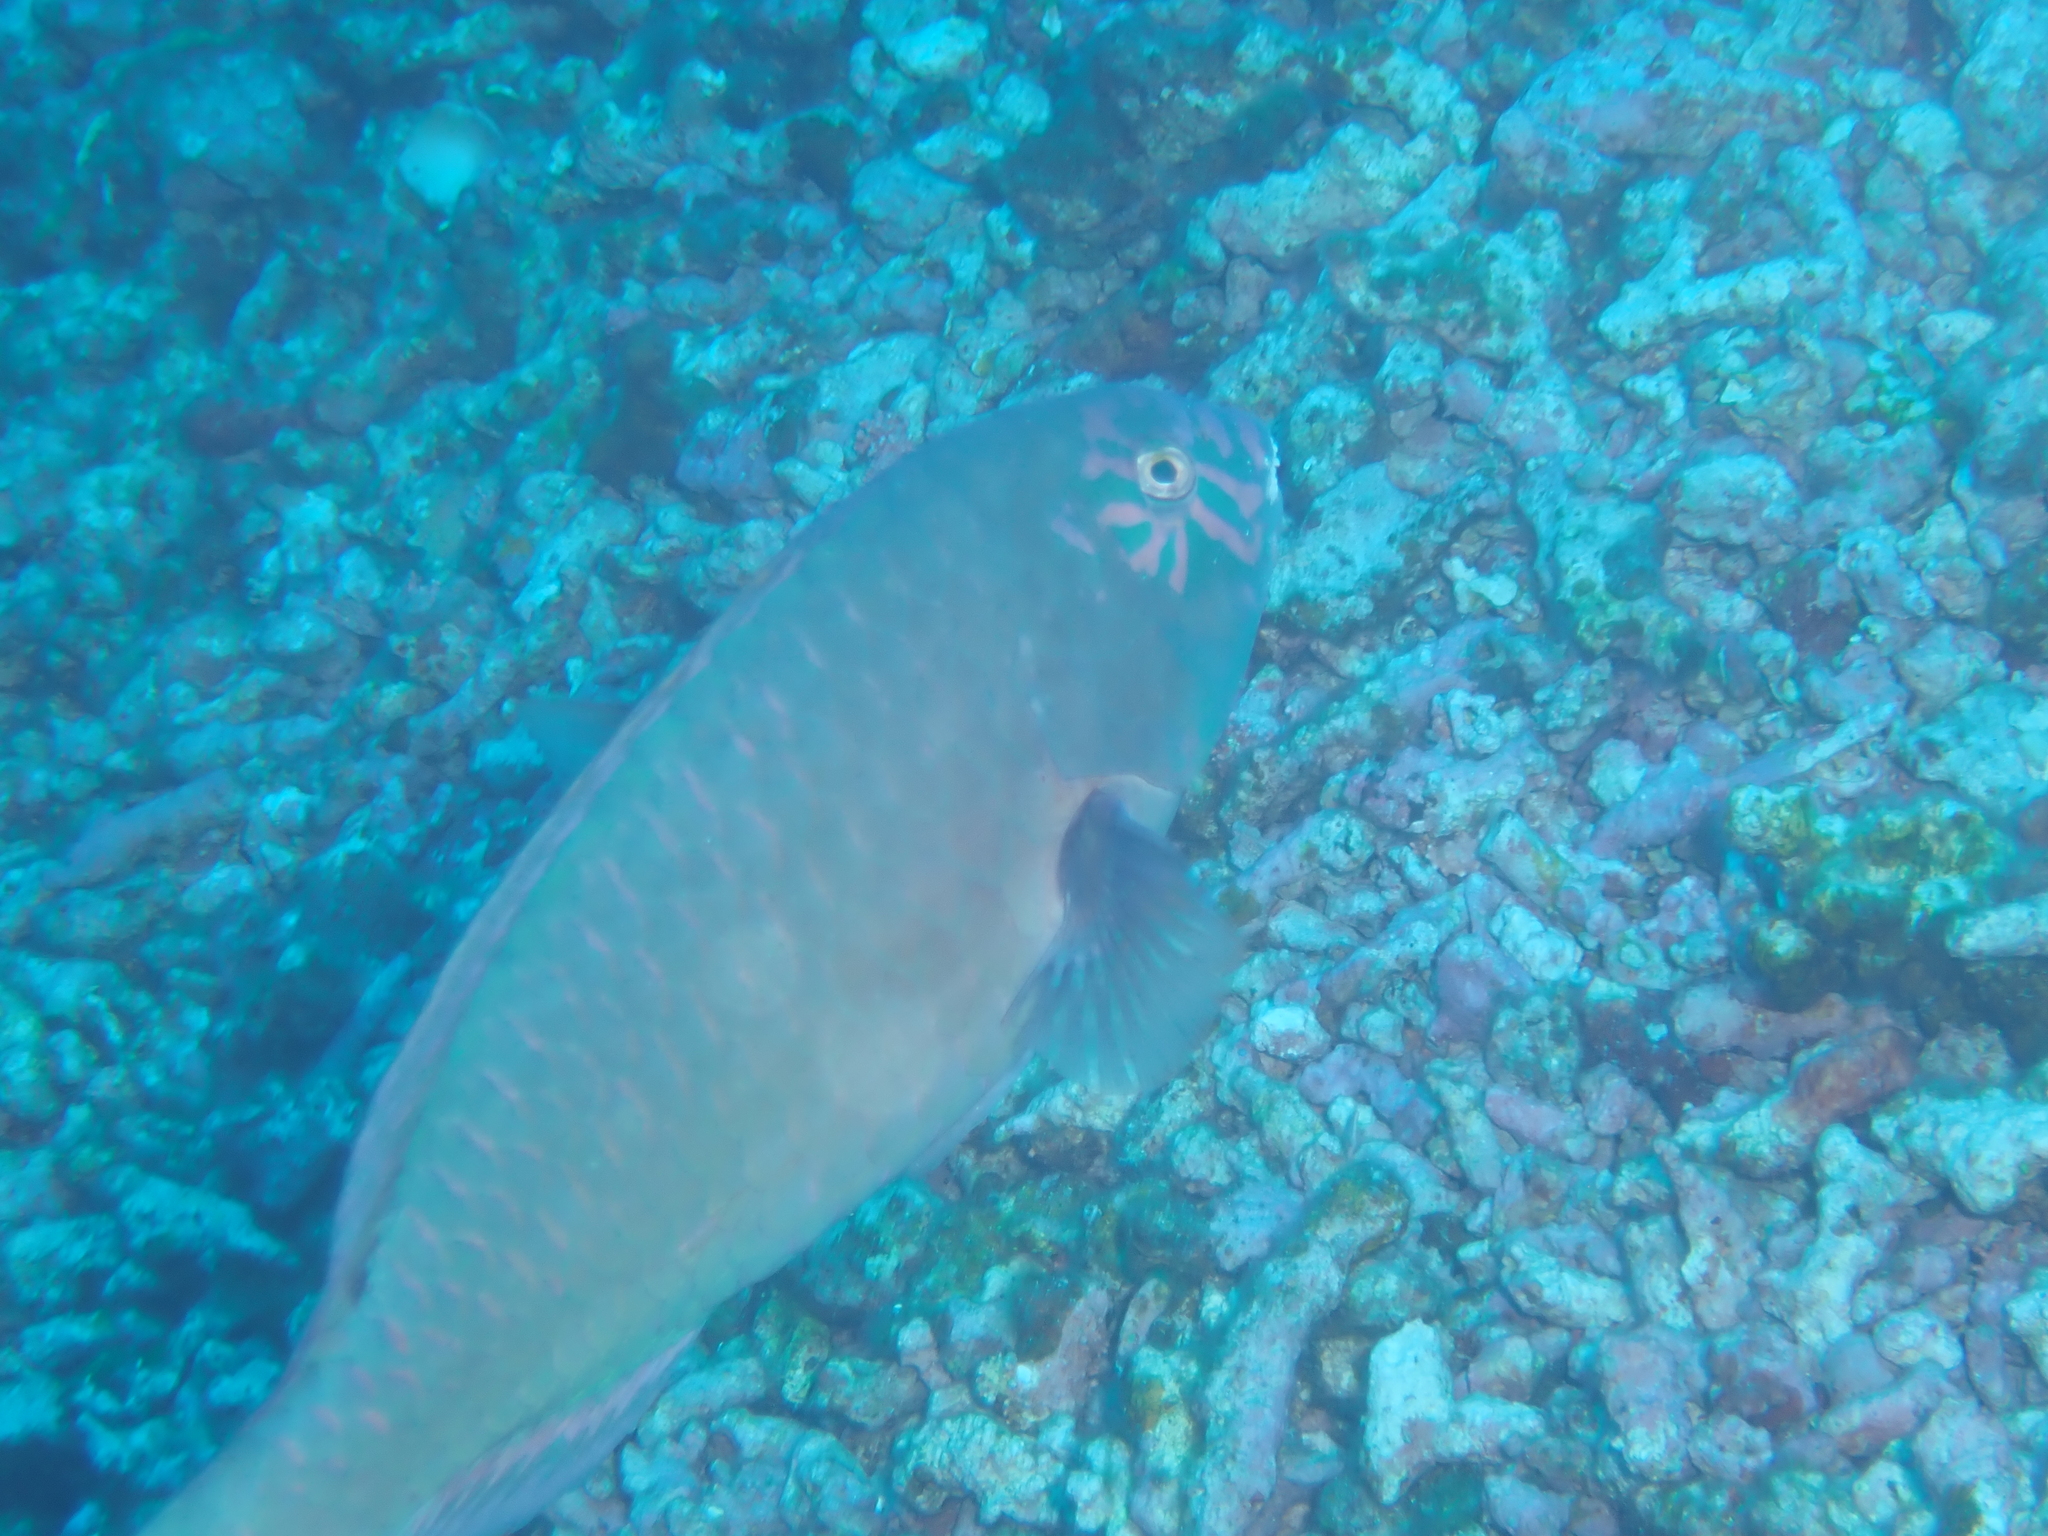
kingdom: Animalia
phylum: Chordata
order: Perciformes
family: Scaridae
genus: Calotomus
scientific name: Calotomus carolinus
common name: Bucktooth
